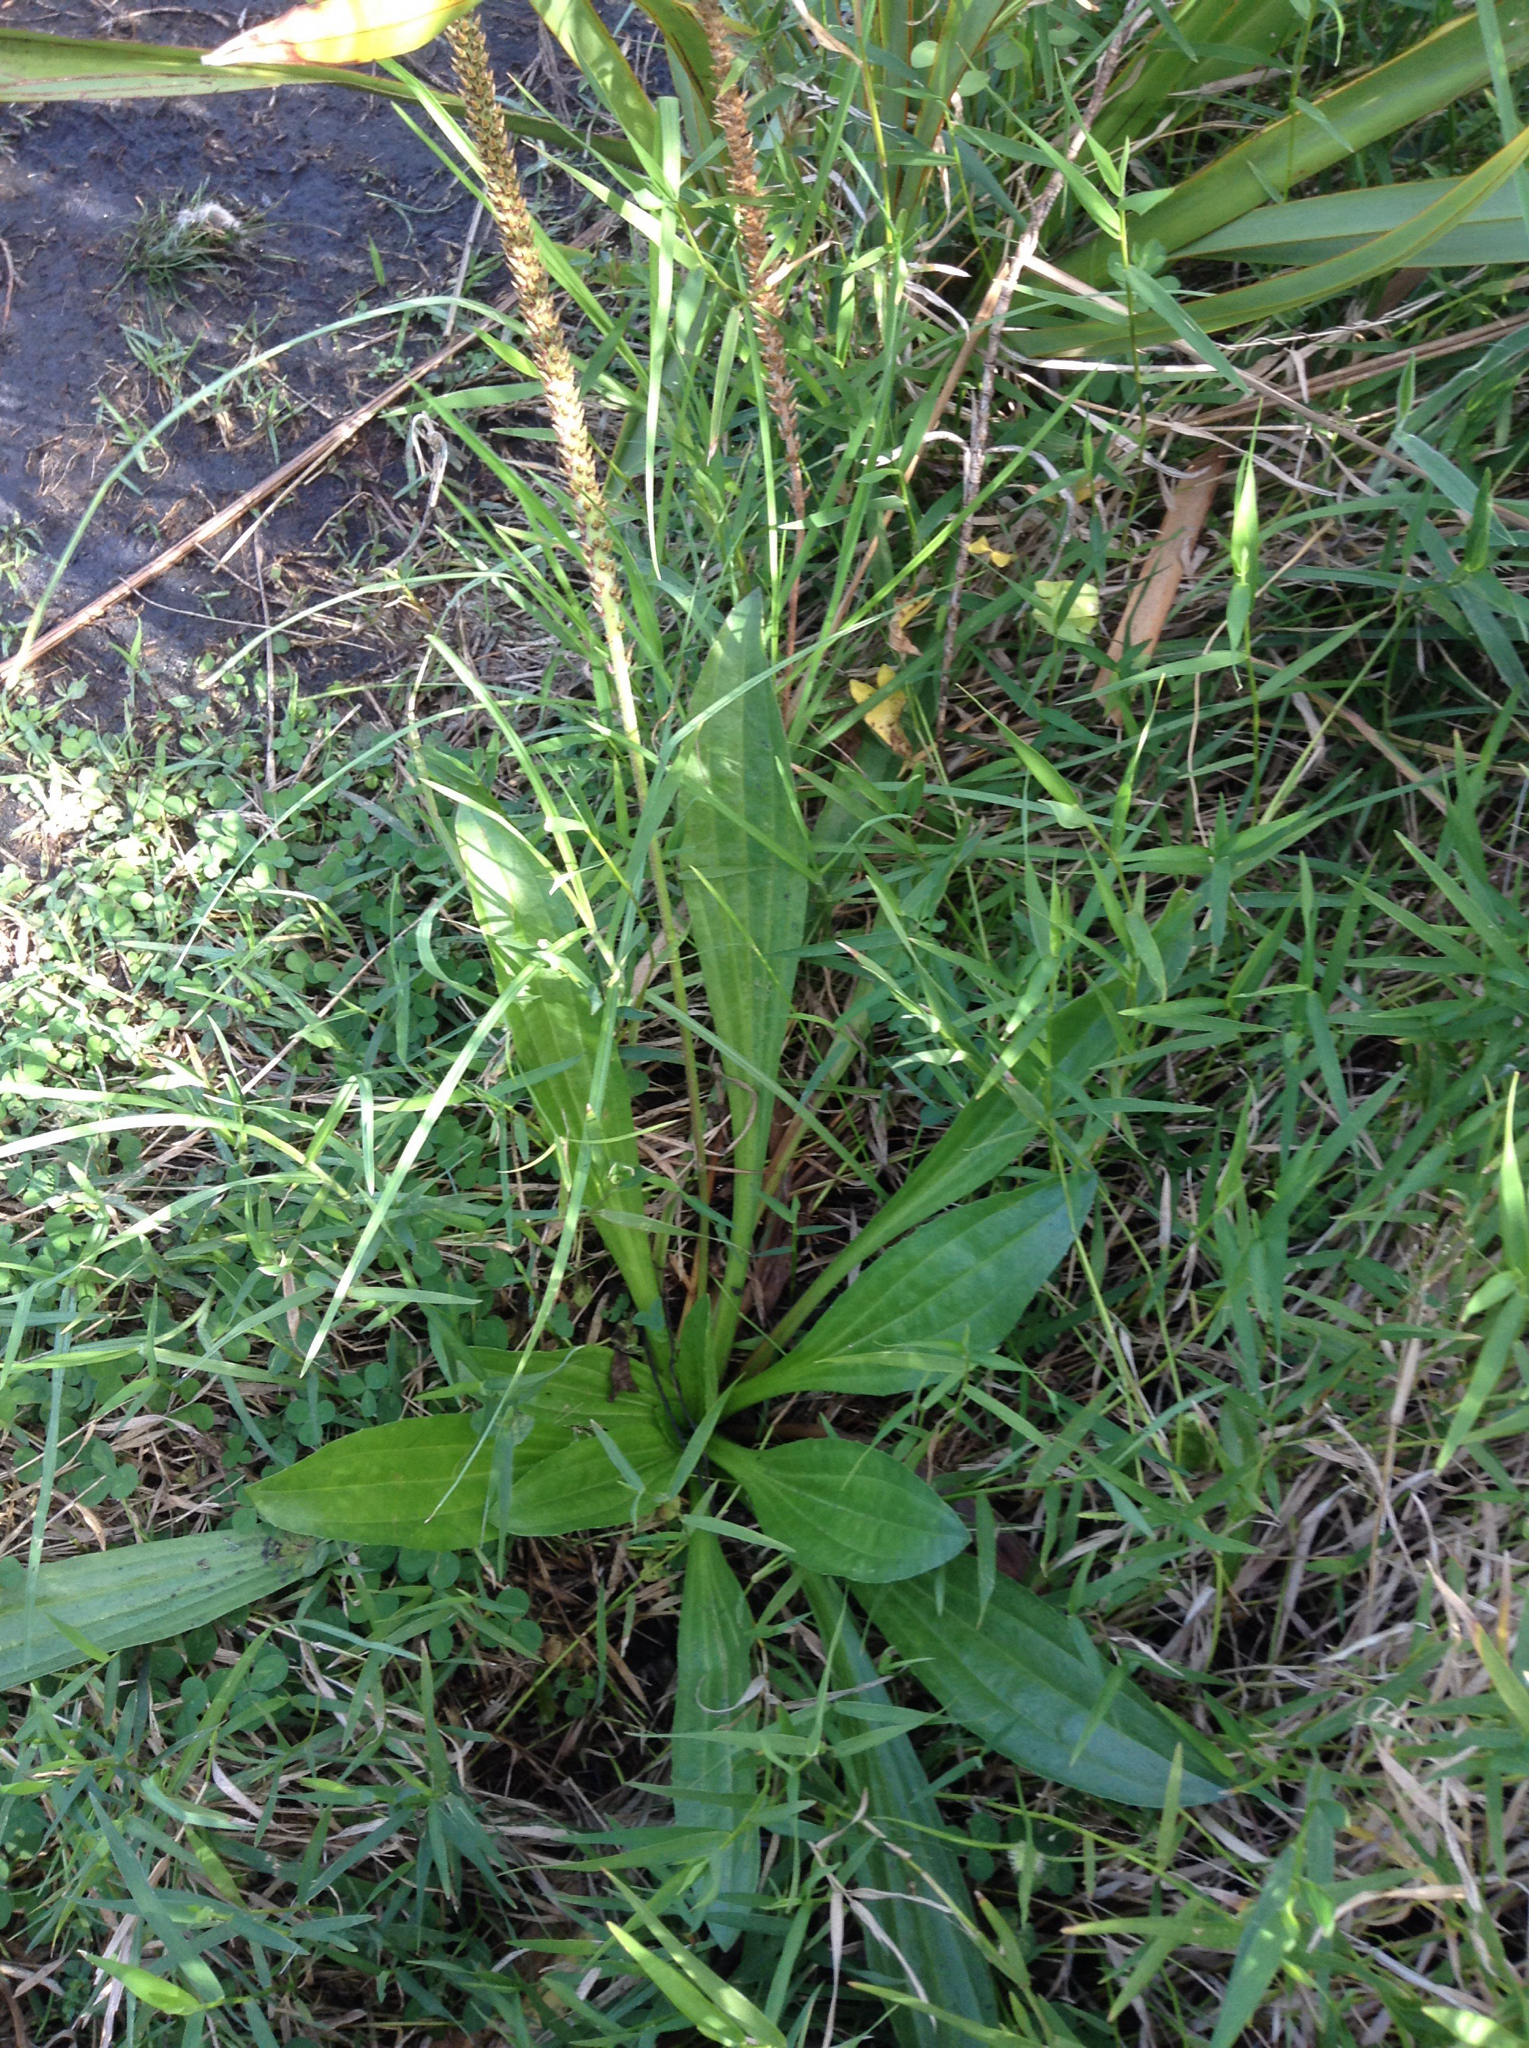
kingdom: Plantae
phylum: Tracheophyta
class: Magnoliopsida
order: Lamiales
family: Plantaginaceae
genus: Plantago
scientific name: Plantago australis
